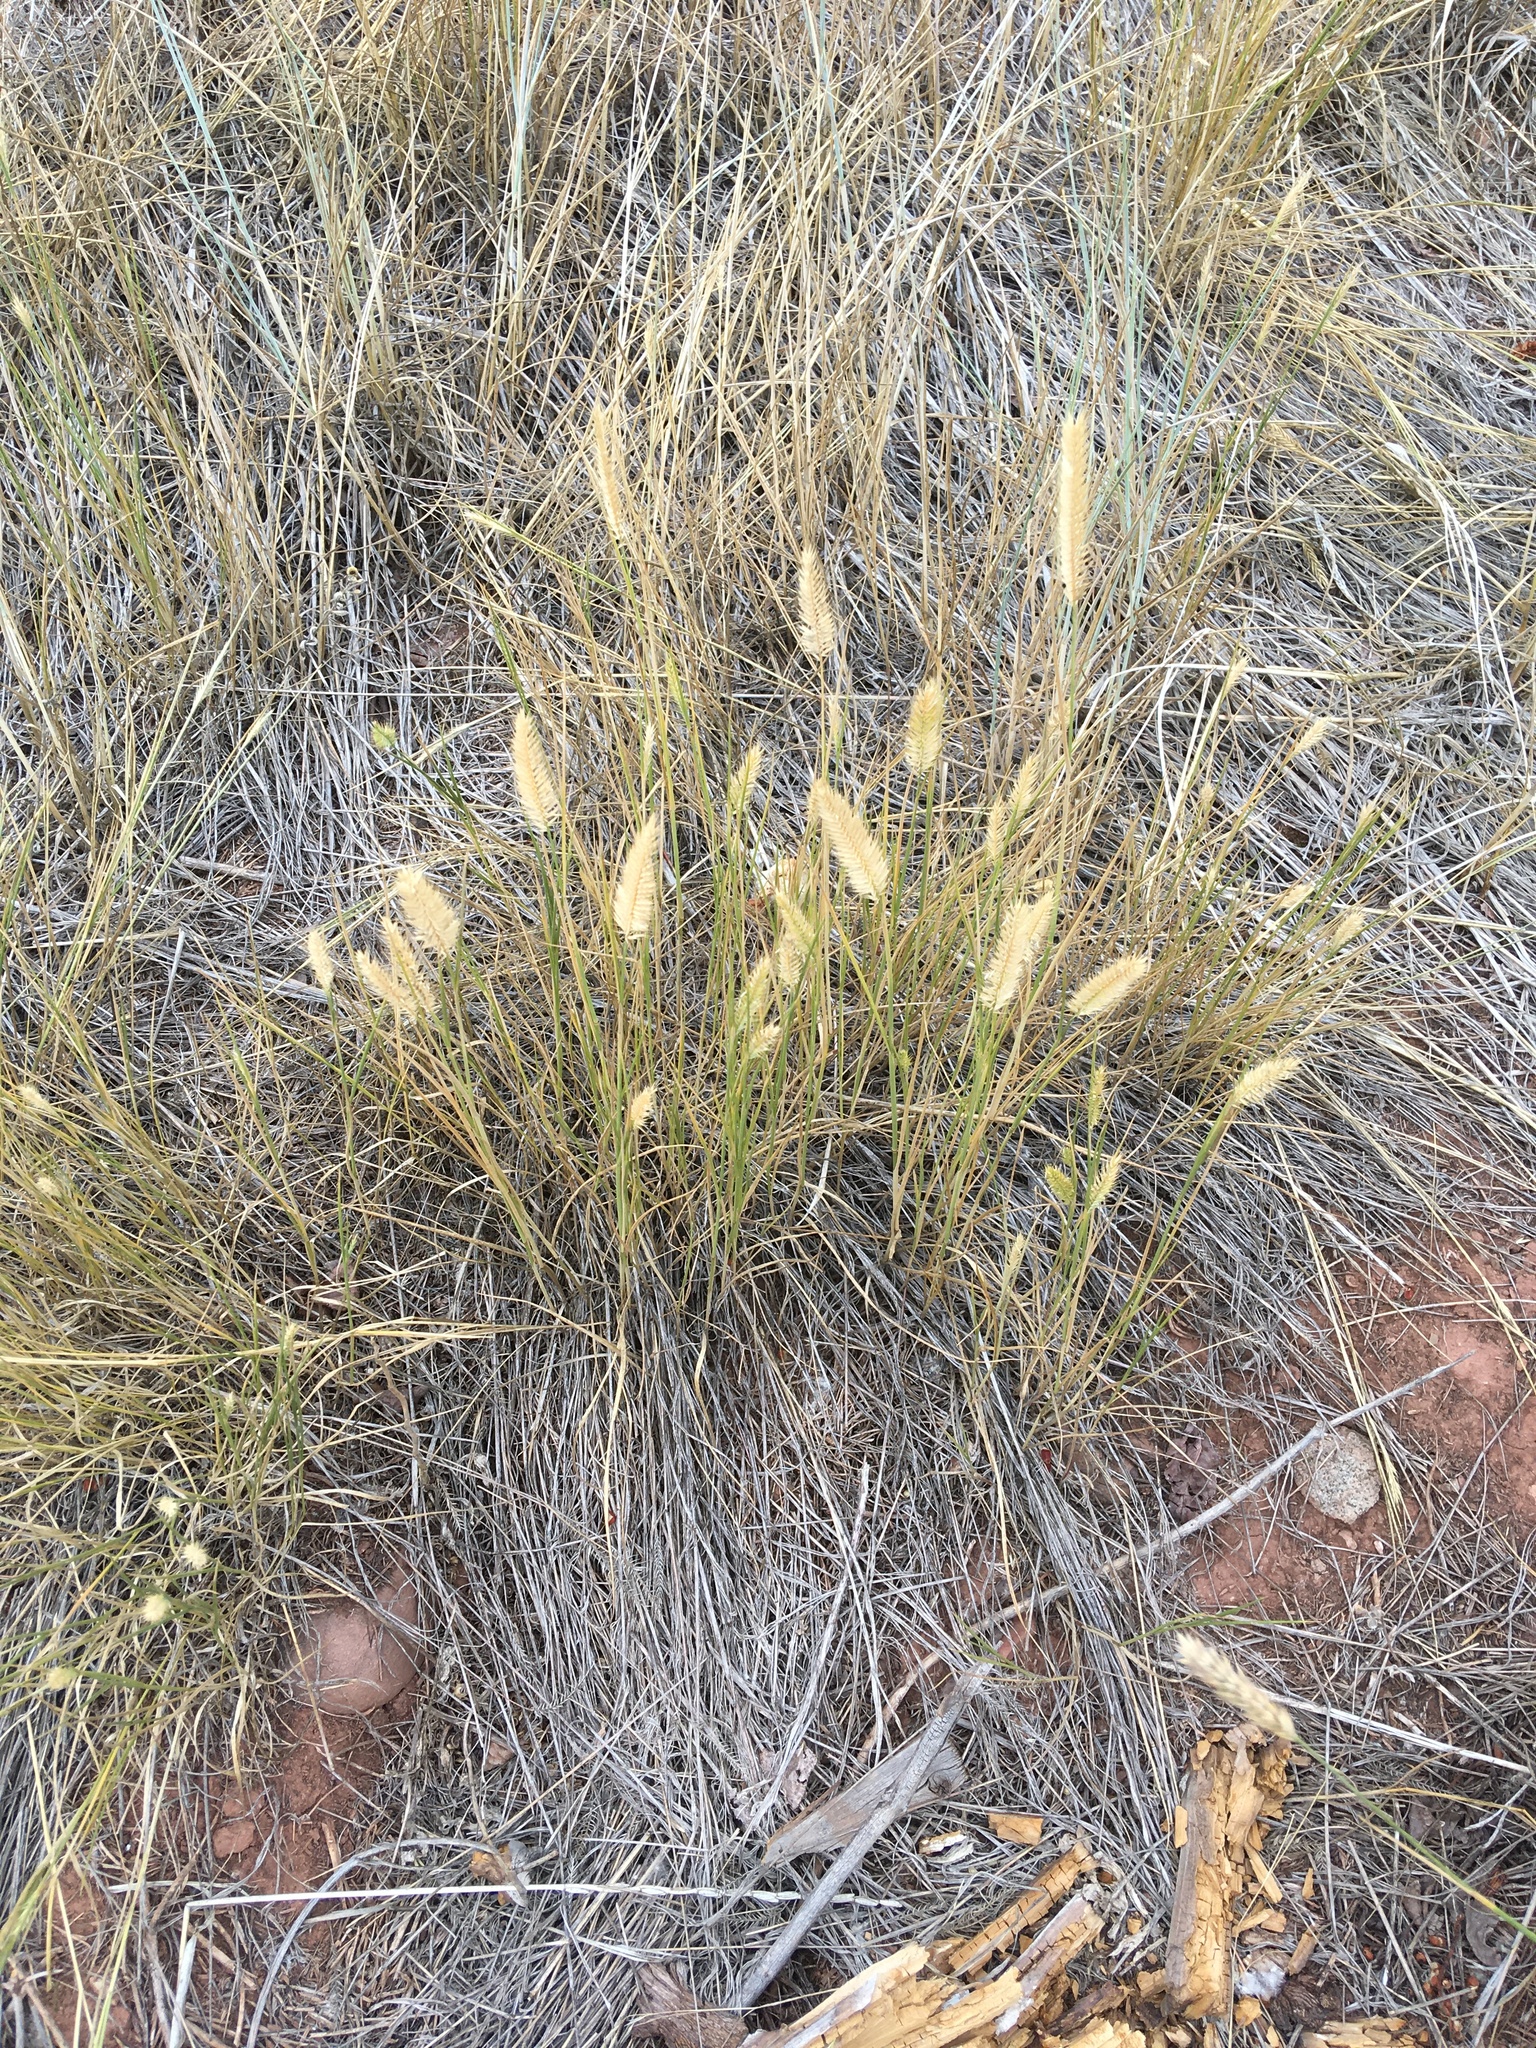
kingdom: Plantae
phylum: Tracheophyta
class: Liliopsida
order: Poales
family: Poaceae
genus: Agropyron
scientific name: Agropyron cristatum
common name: Crested wheatgrass
